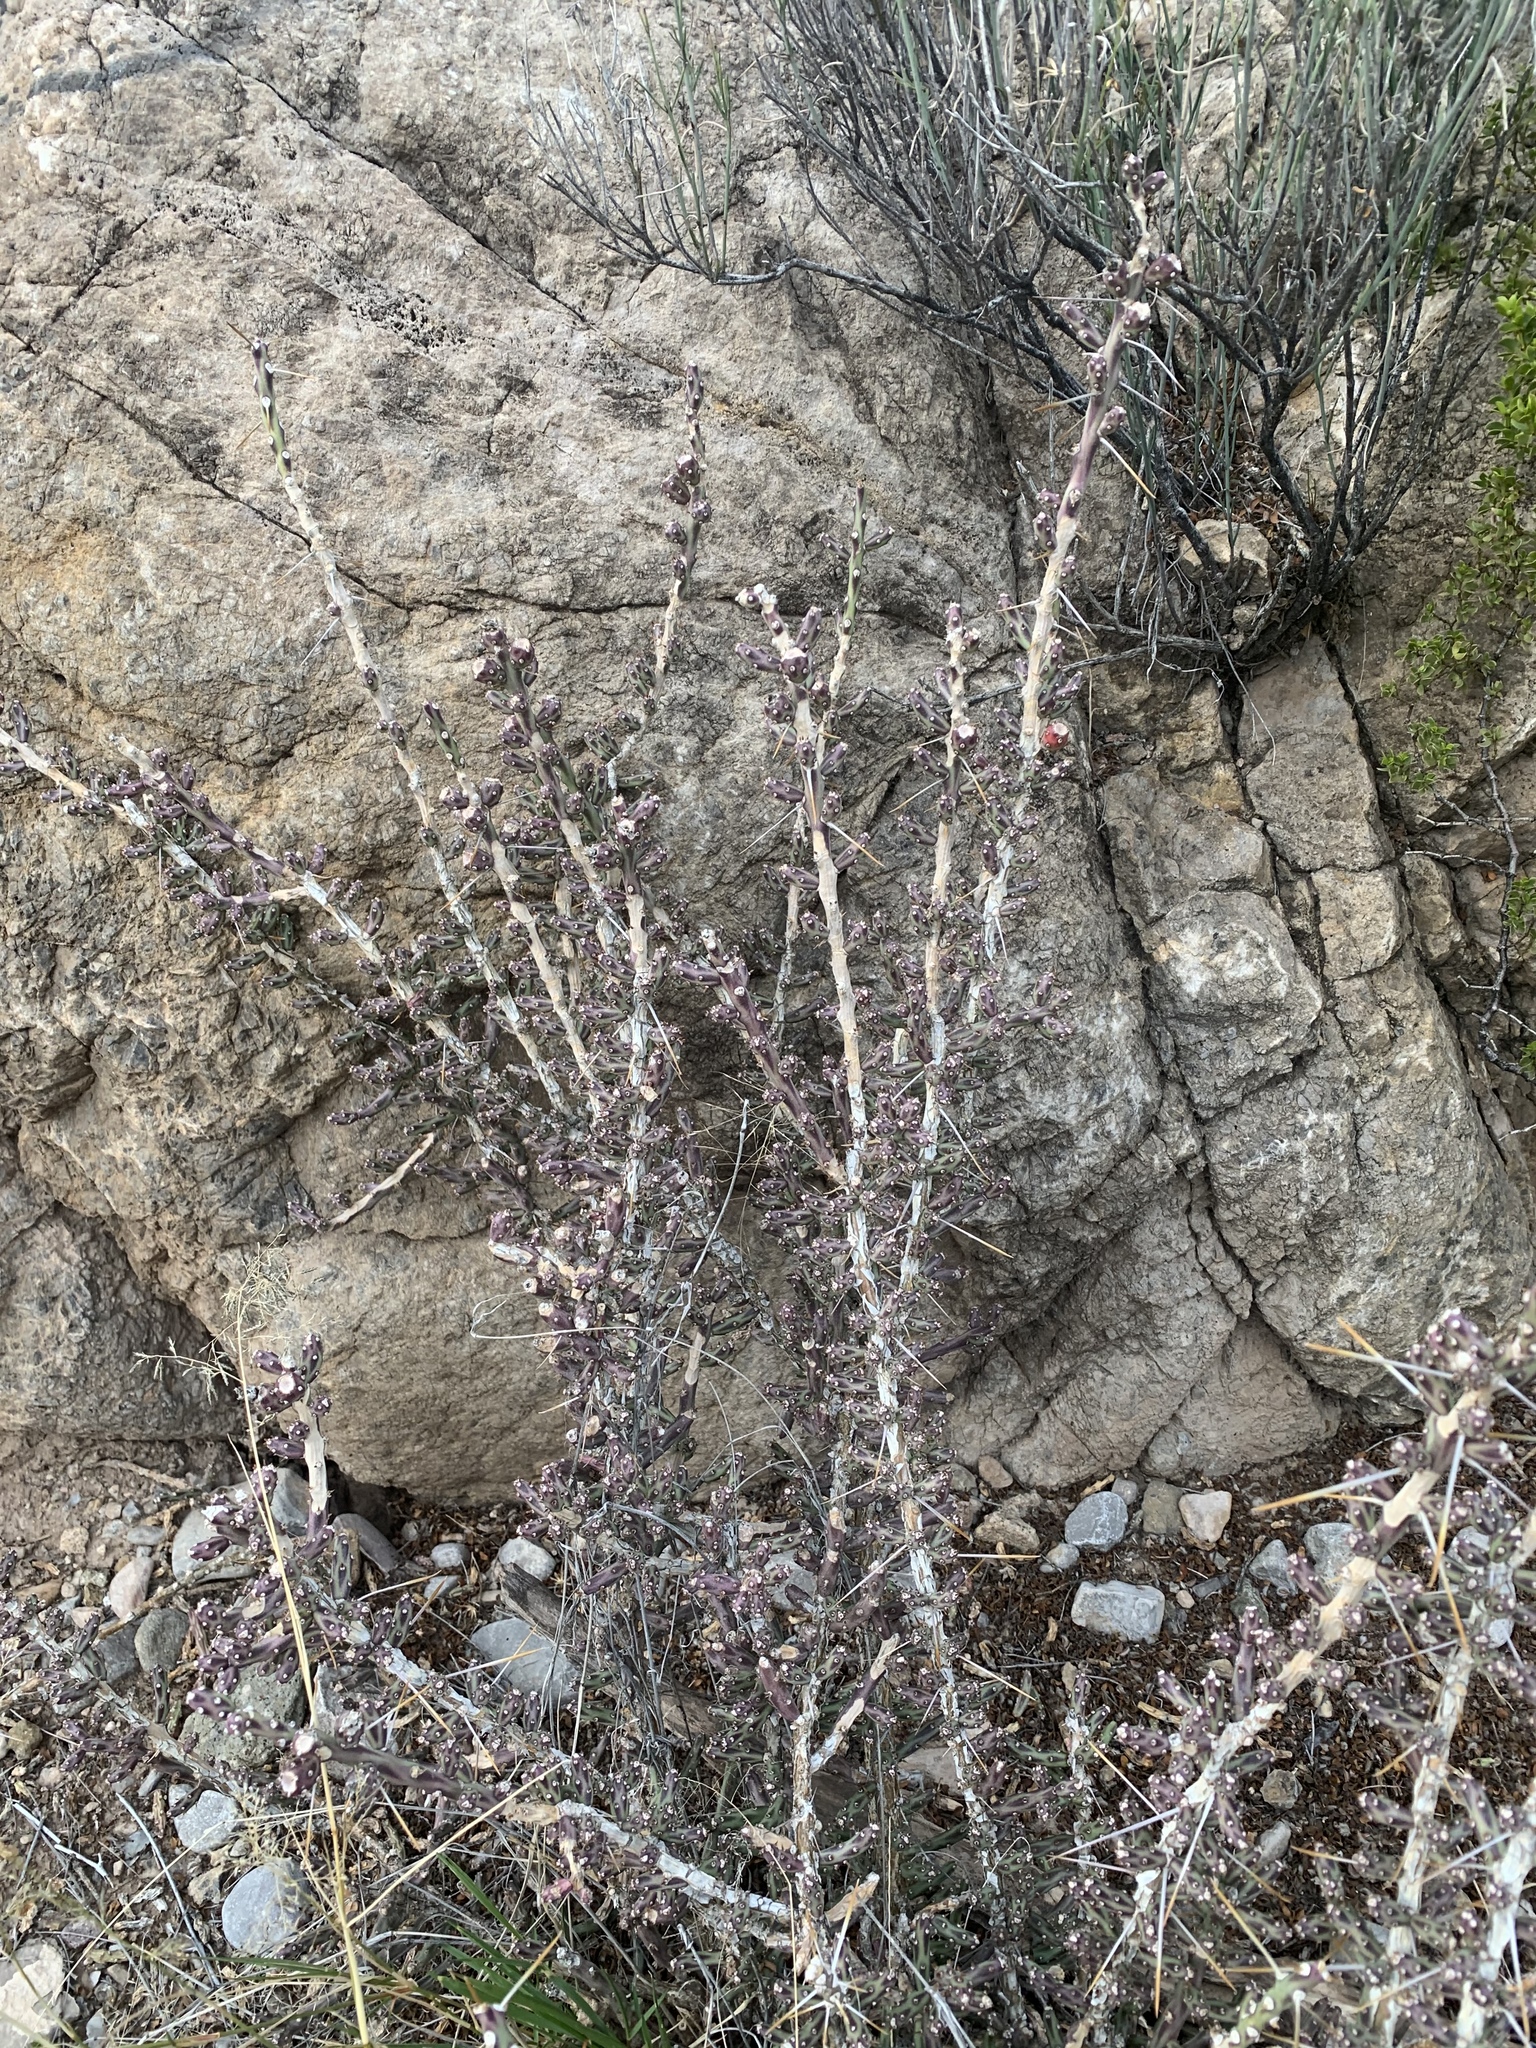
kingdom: Plantae
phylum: Tracheophyta
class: Magnoliopsida
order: Caryophyllales
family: Cactaceae
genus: Cylindropuntia
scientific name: Cylindropuntia leptocaulis
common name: Christmas cactus
